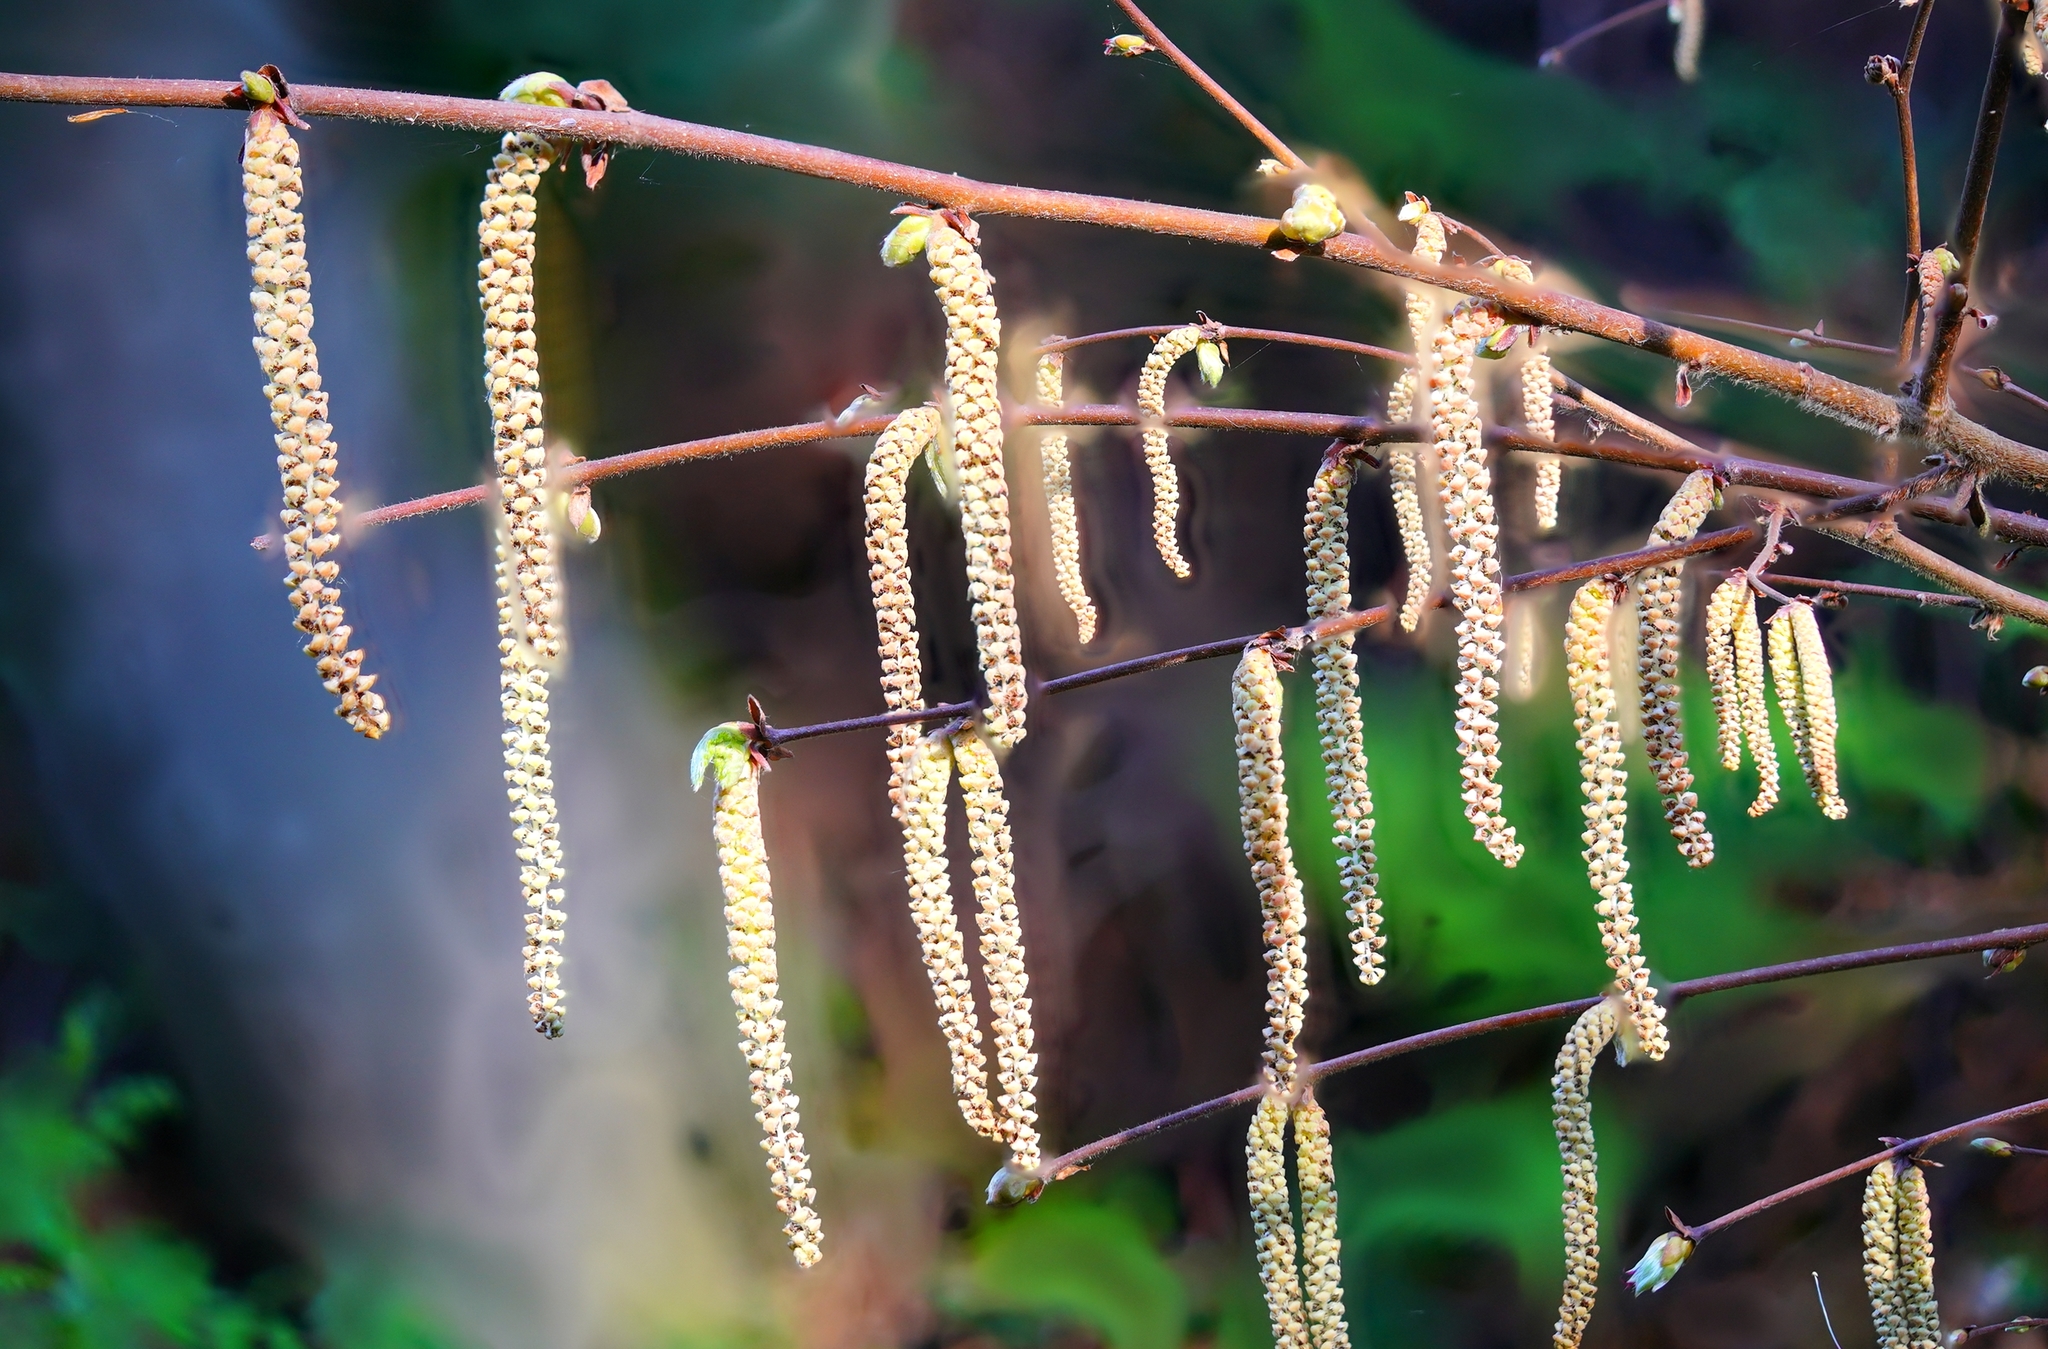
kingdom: Plantae
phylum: Tracheophyta
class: Magnoliopsida
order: Fagales
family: Betulaceae
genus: Corylus
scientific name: Corylus cornuta
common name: Beaked hazel
